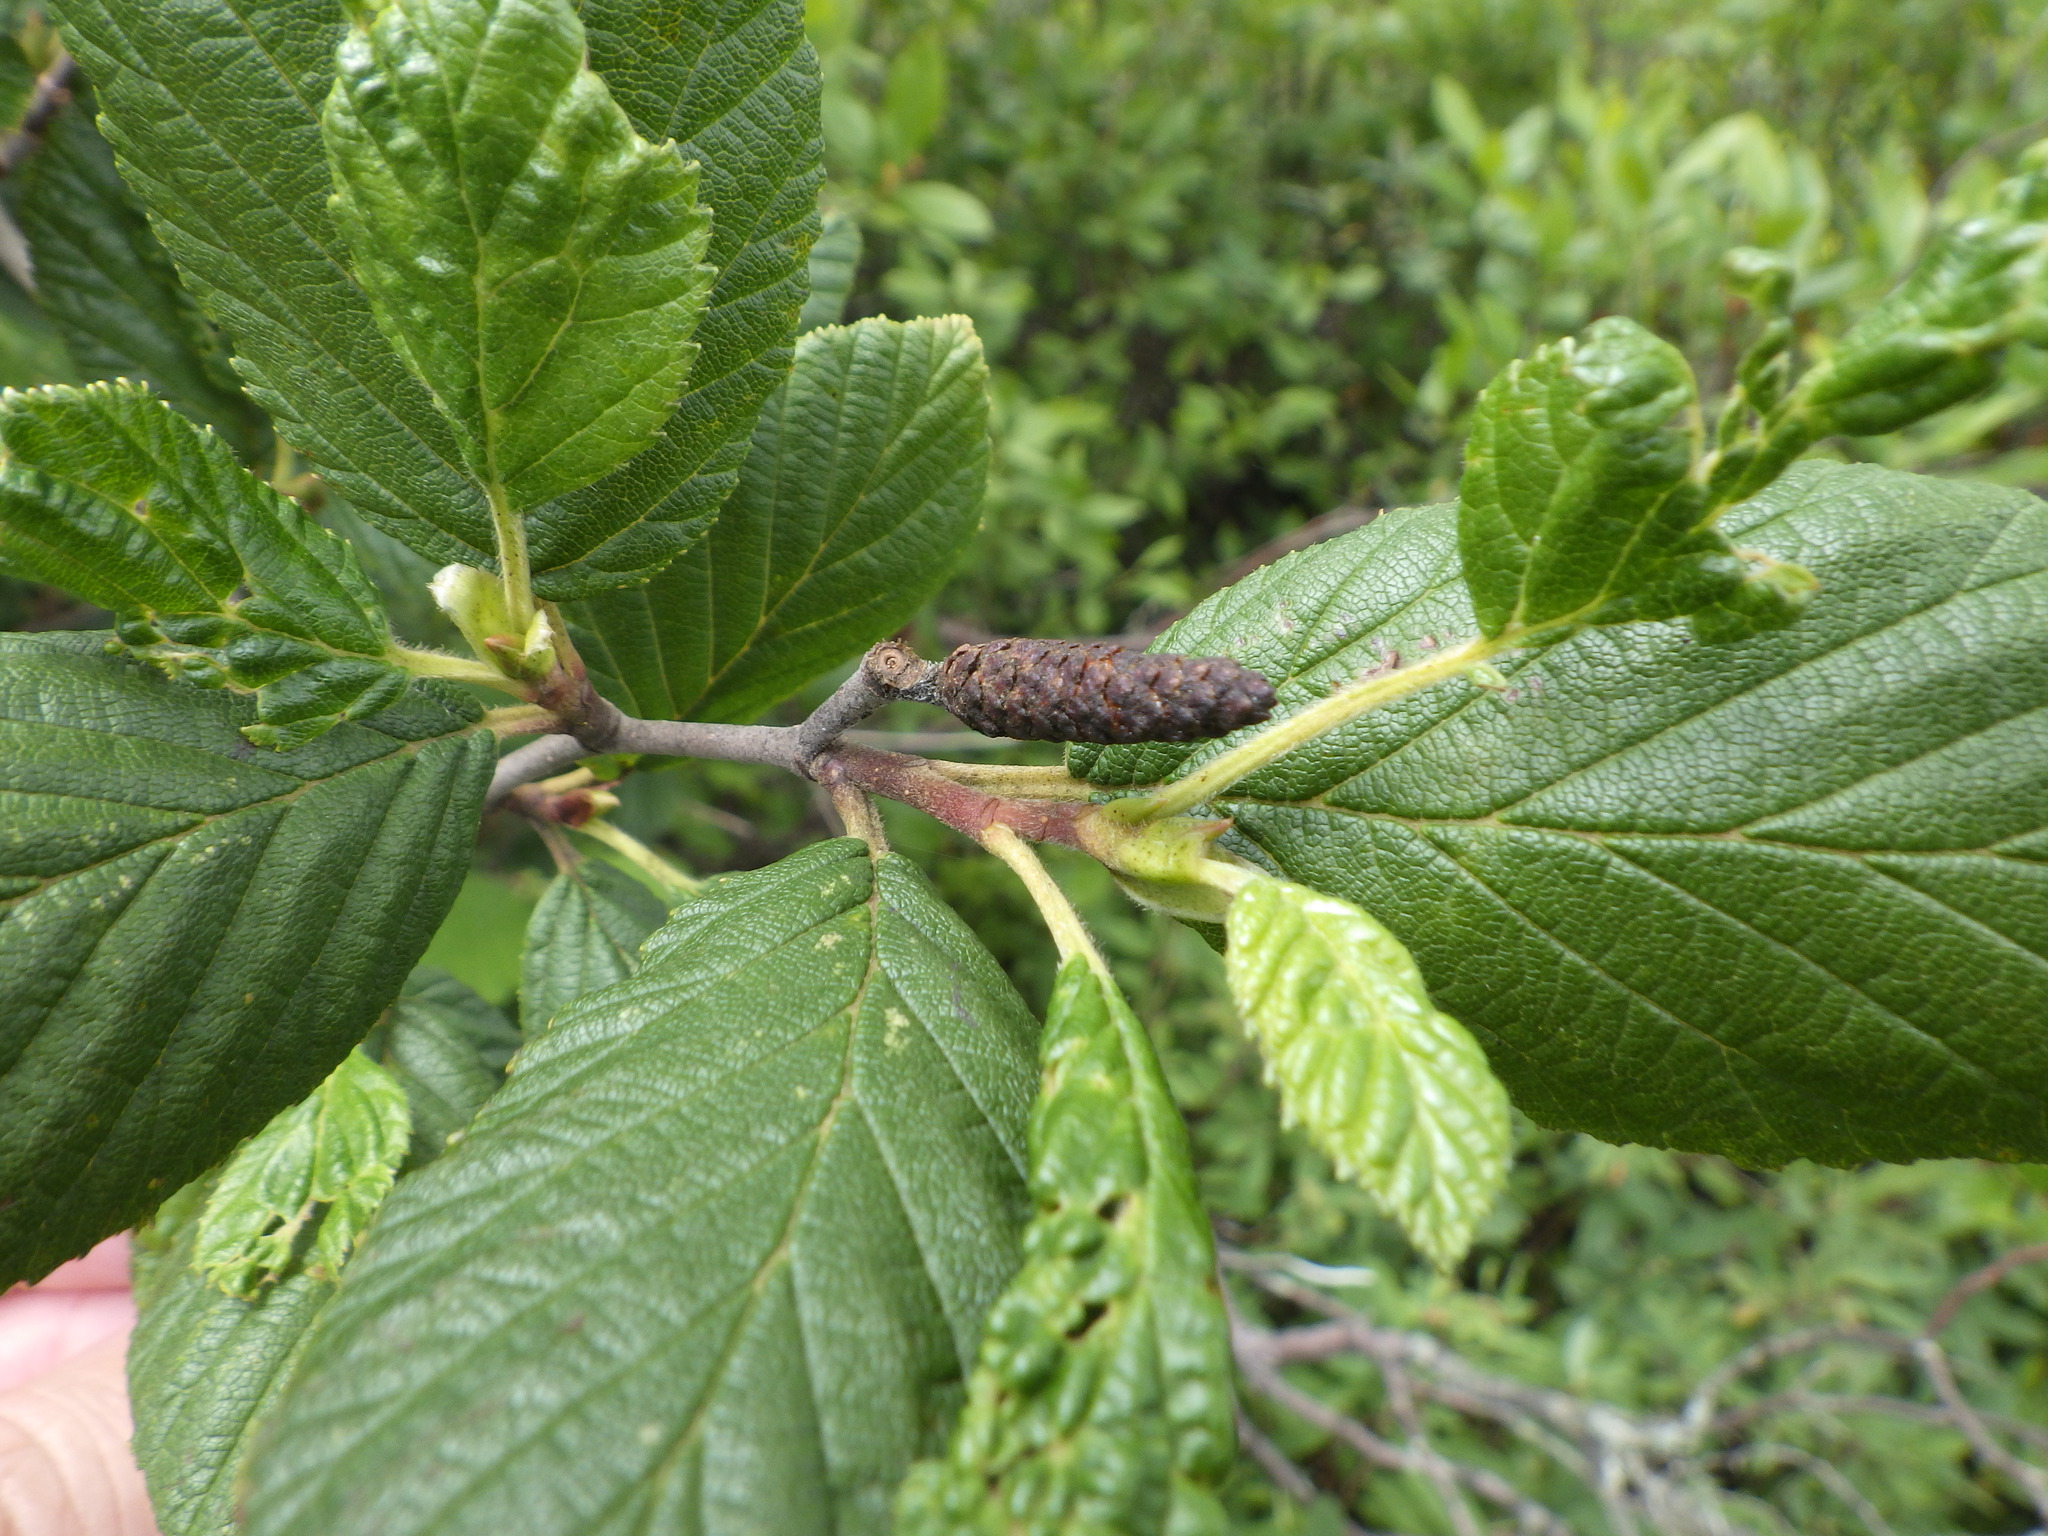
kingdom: Plantae
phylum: Tracheophyta
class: Magnoliopsida
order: Fagales
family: Betulaceae
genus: Alnus
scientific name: Alnus alnobetula
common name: Green alder
